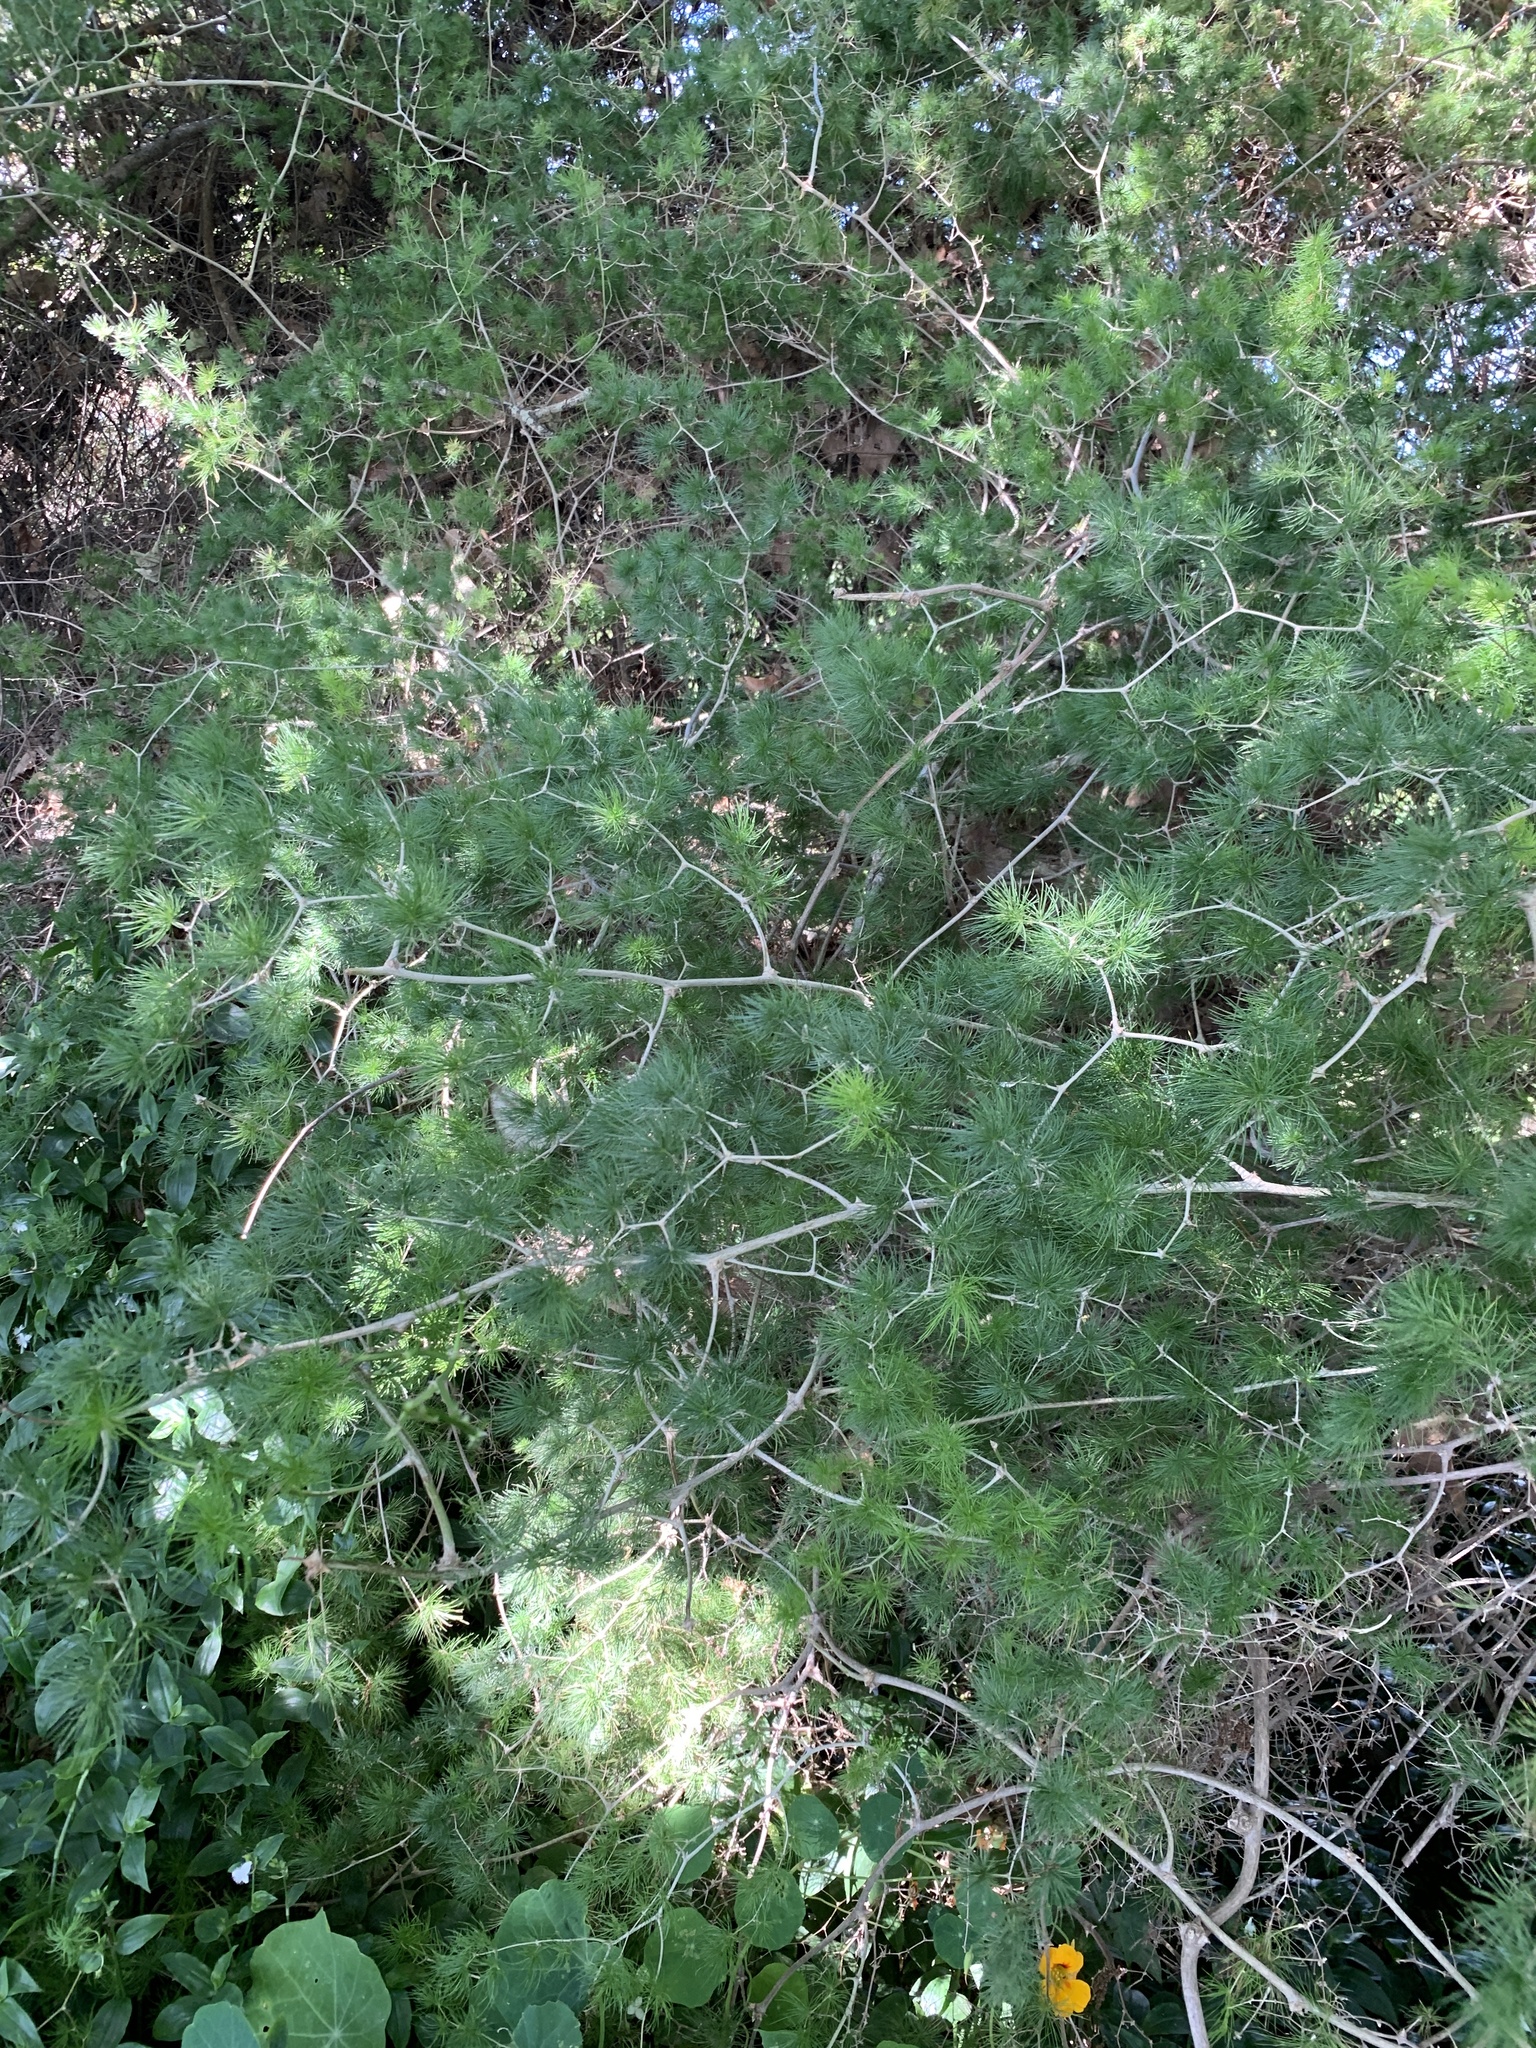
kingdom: Plantae
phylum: Tracheophyta
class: Liliopsida
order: Asparagales
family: Asparagaceae
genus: Asparagus
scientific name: Asparagus retrofractus
